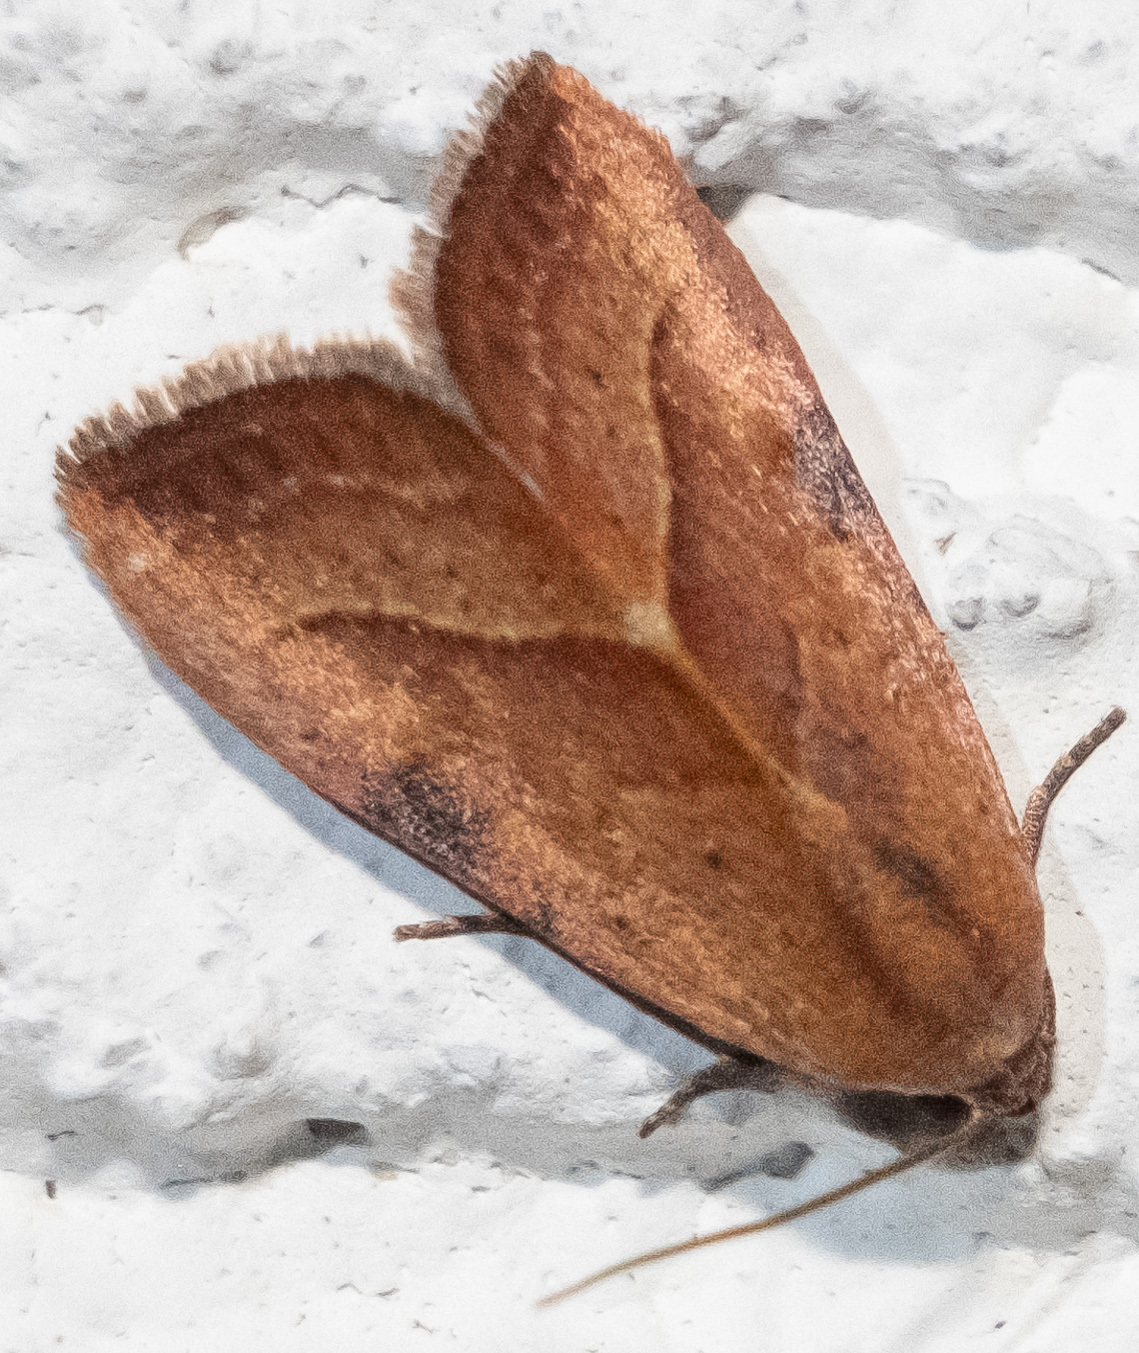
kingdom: Animalia
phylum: Arthropoda
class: Insecta
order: Lepidoptera
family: Noctuidae
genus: Galgula
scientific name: Galgula partita
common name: Wedgeling
